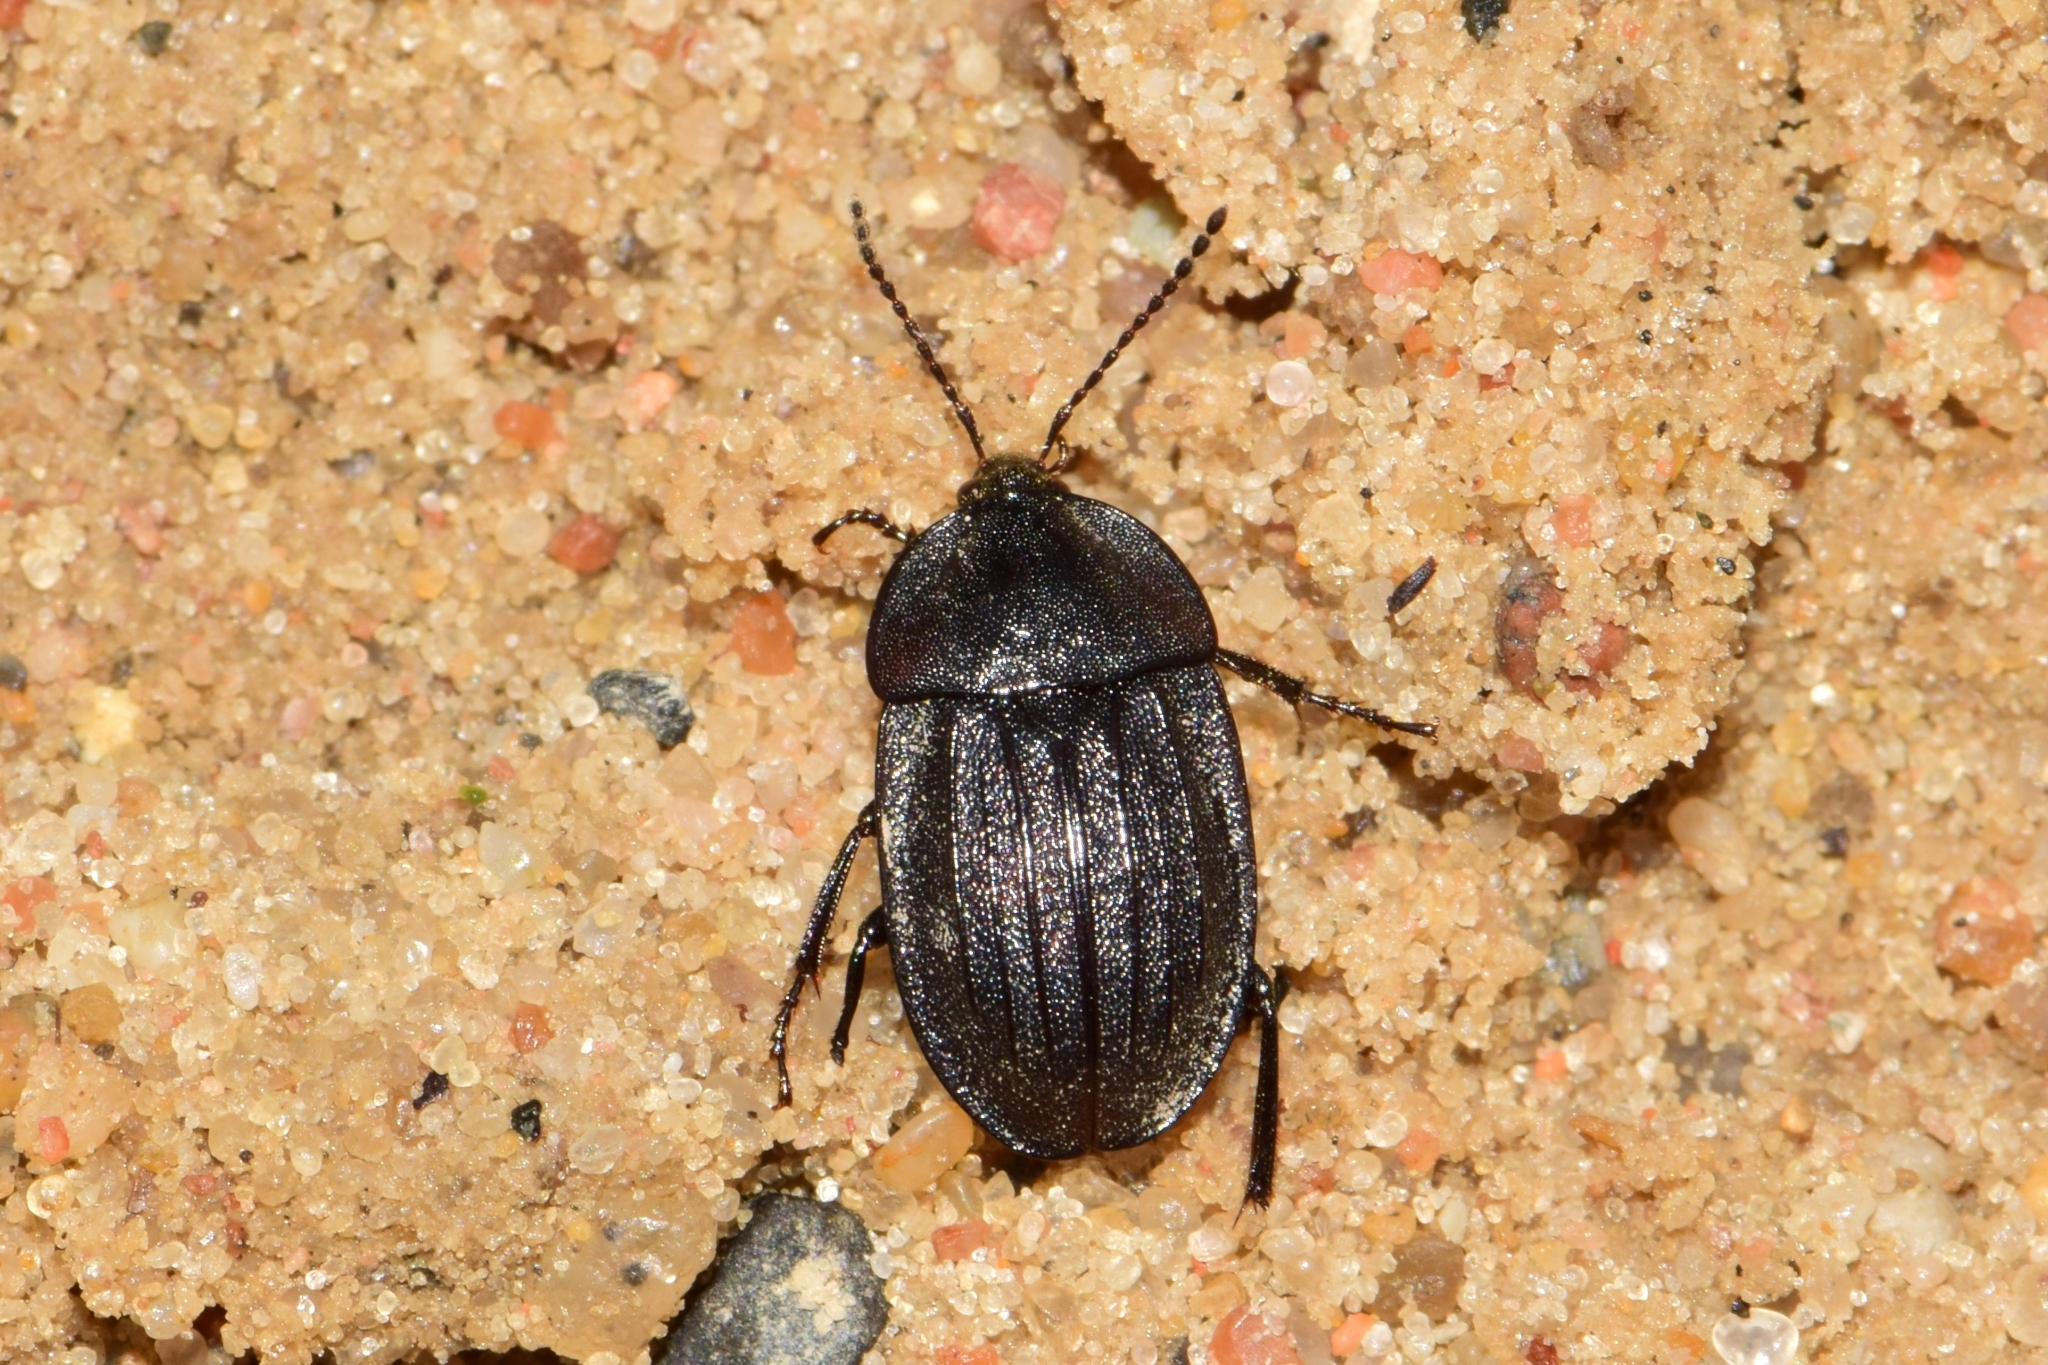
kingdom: Animalia
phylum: Arthropoda
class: Insecta
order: Coleoptera
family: Staphylinidae
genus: Silpha
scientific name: Silpha atrata
